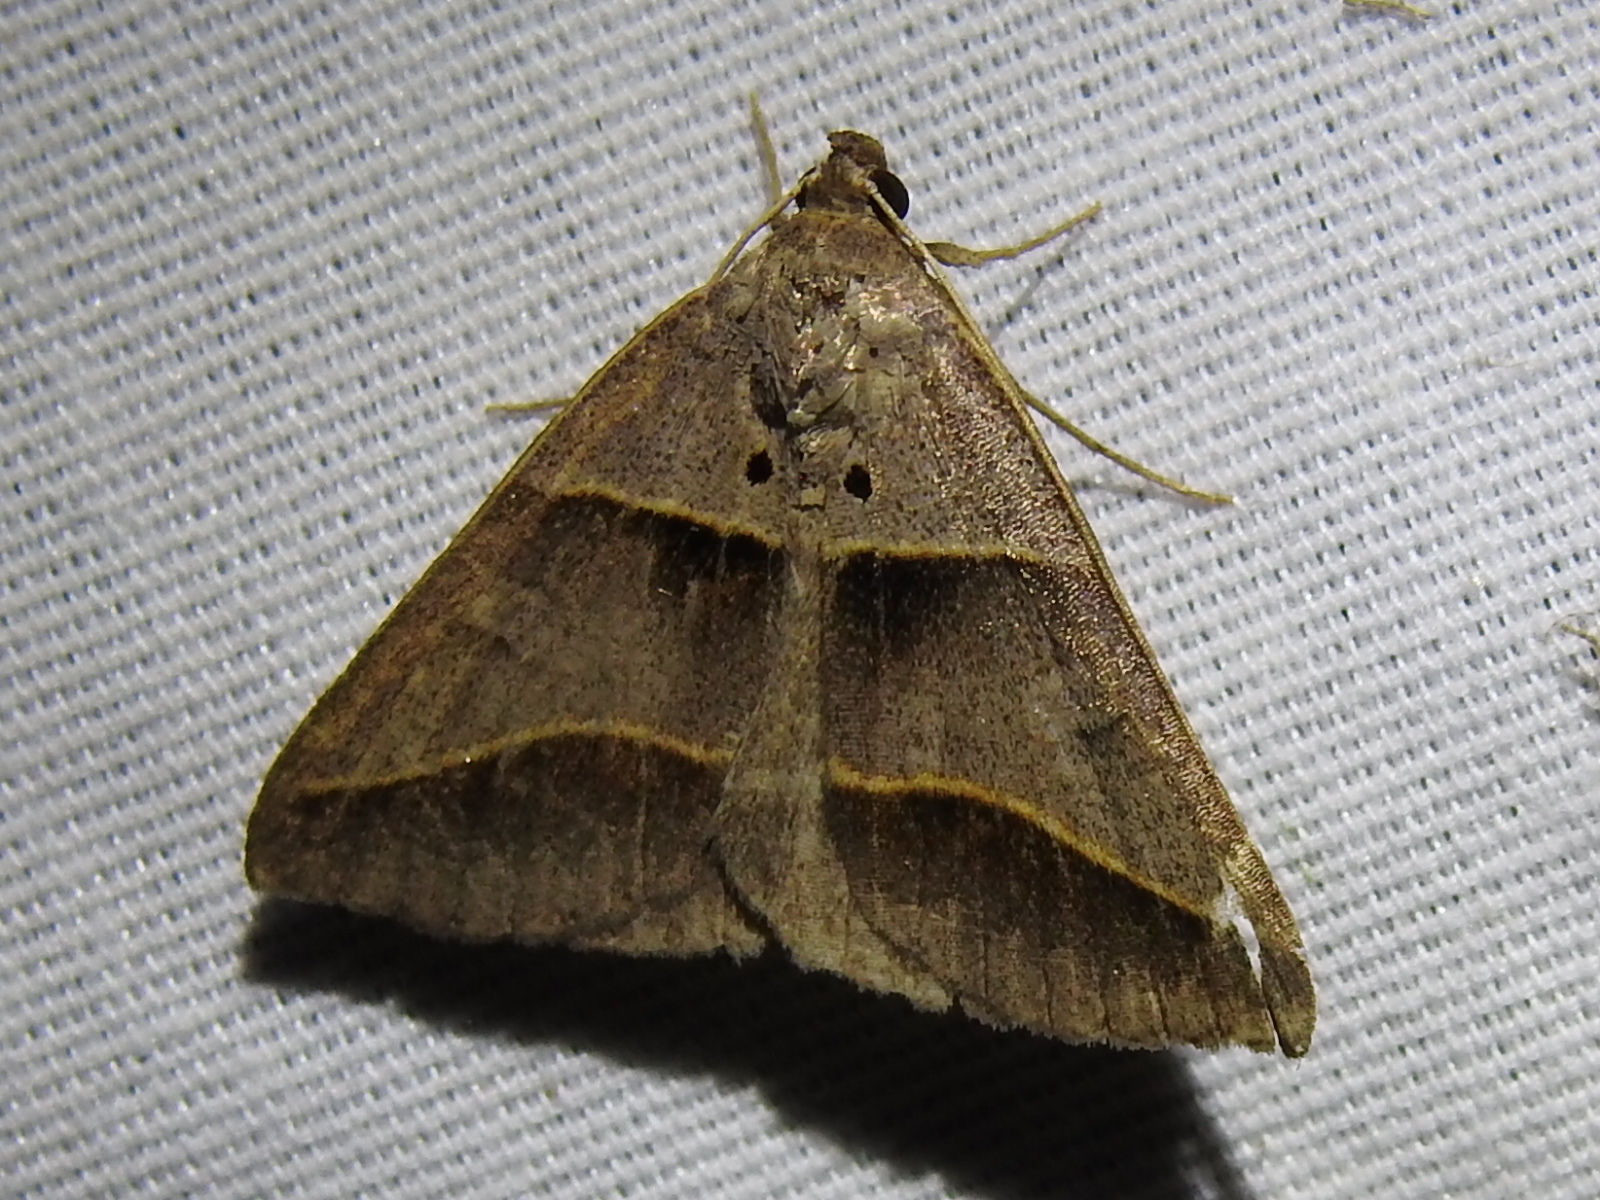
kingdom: Animalia
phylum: Arthropoda
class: Insecta
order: Lepidoptera
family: Erebidae
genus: Ptichodis
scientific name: Ptichodis herbarum
